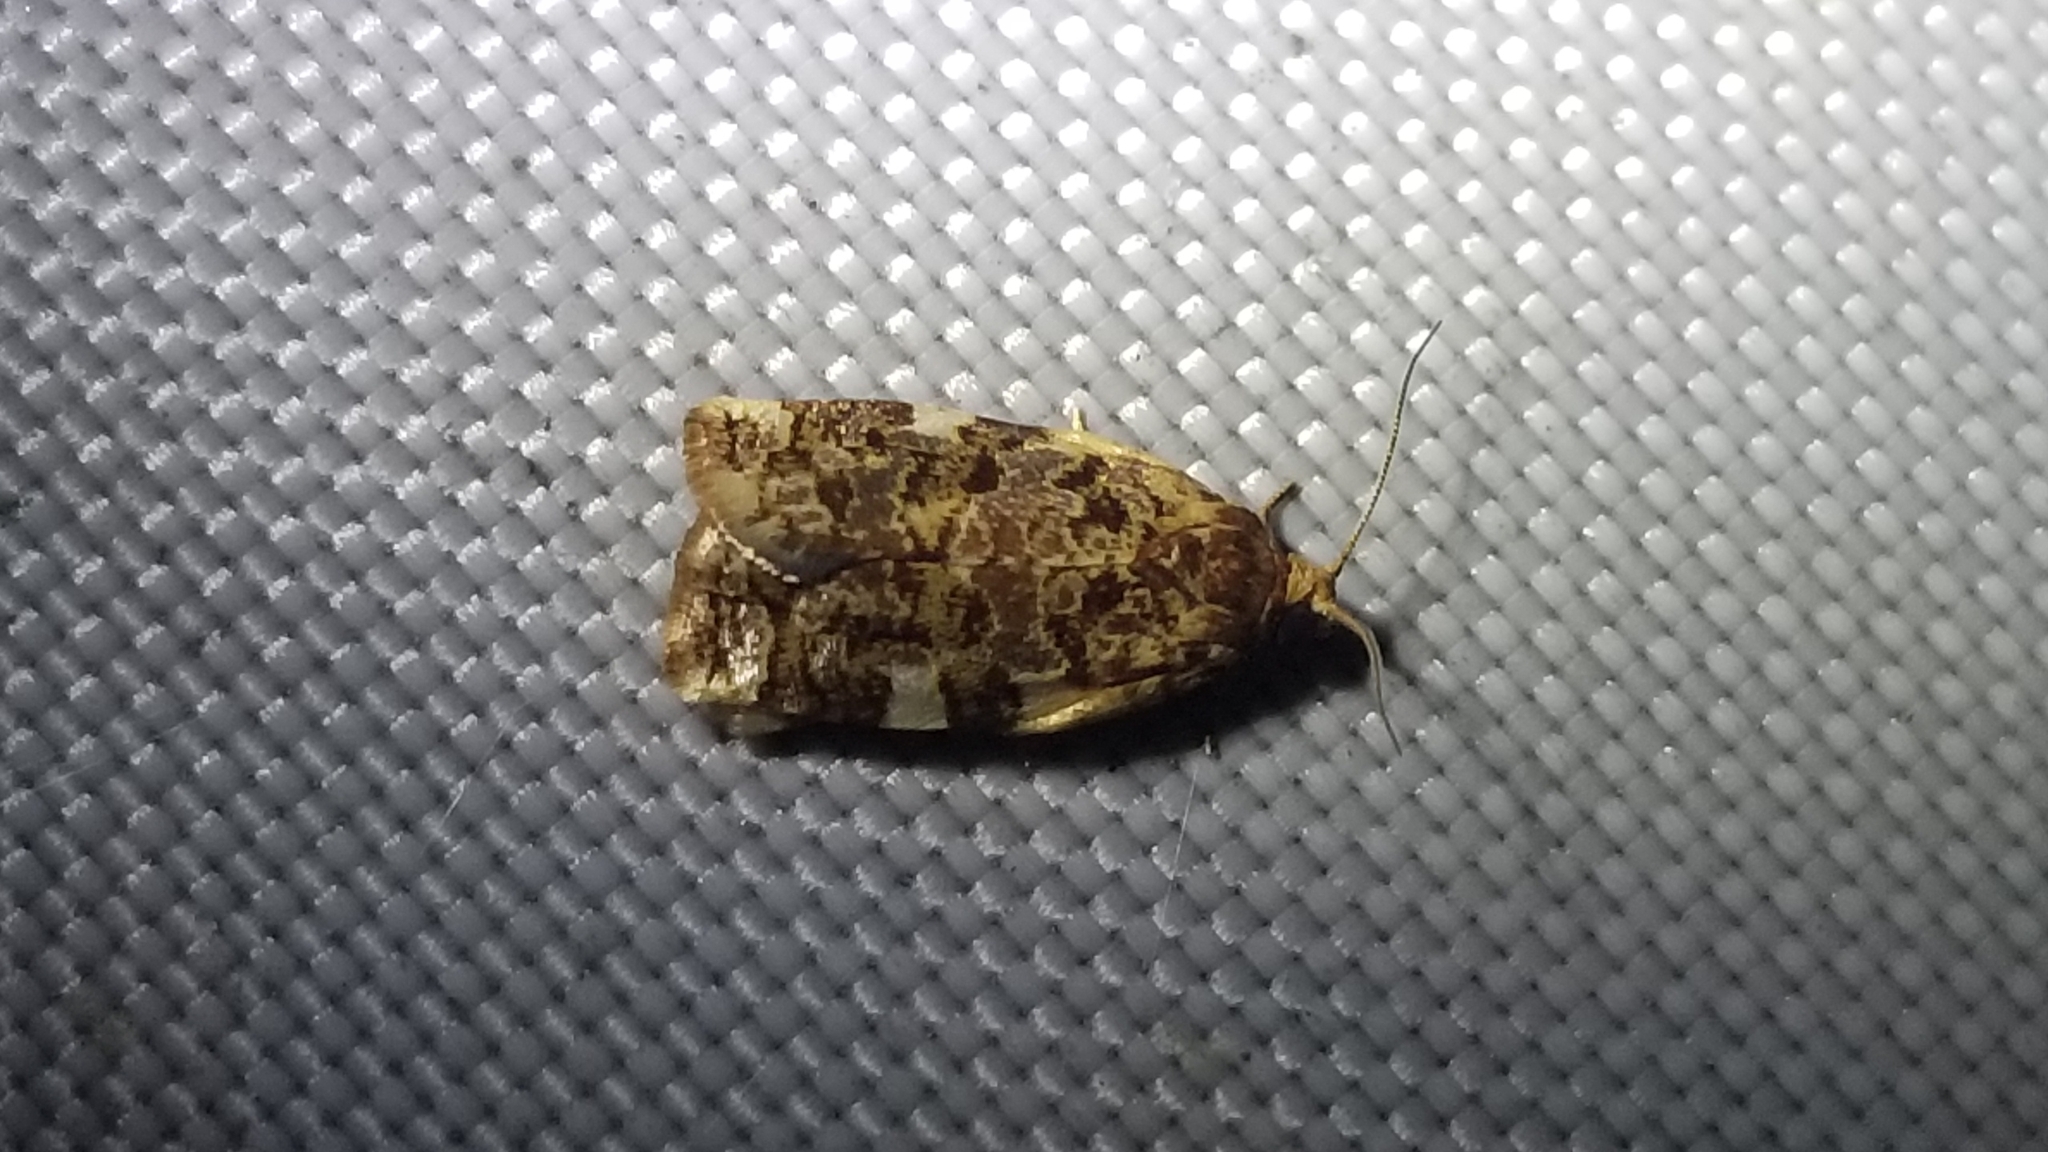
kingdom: Animalia
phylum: Arthropoda
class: Insecta
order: Lepidoptera
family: Tortricidae
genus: Archips
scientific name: Archips argyrospila
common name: Fruit-tree leafroller moth
